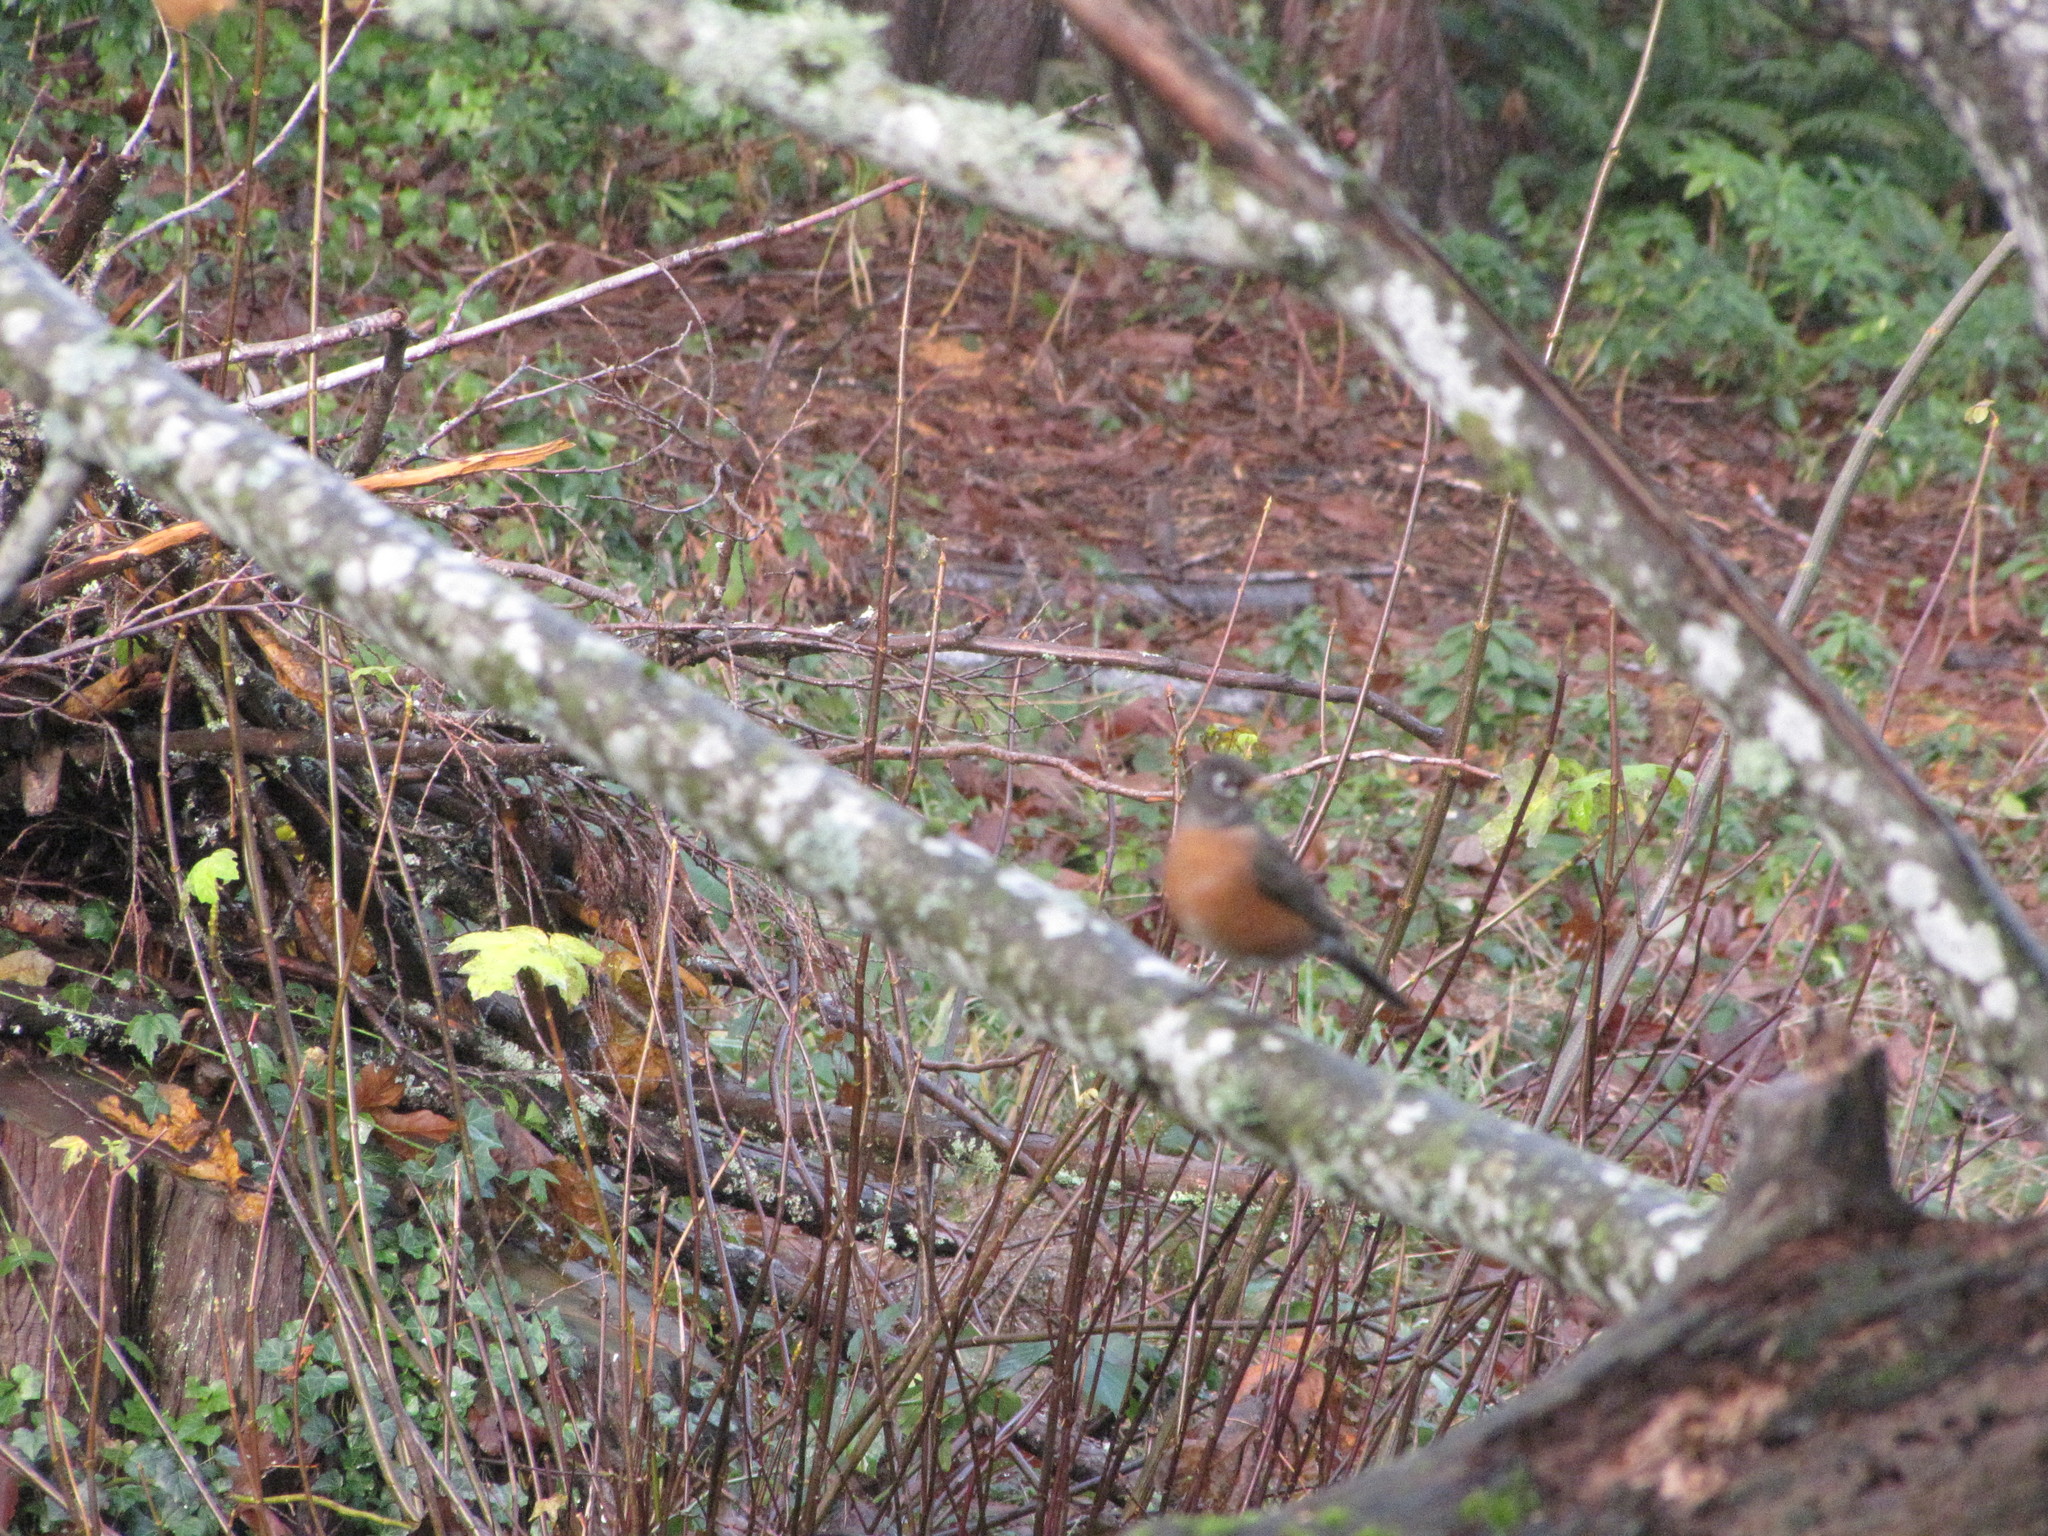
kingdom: Animalia
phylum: Chordata
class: Aves
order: Passeriformes
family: Turdidae
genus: Turdus
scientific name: Turdus migratorius
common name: American robin
